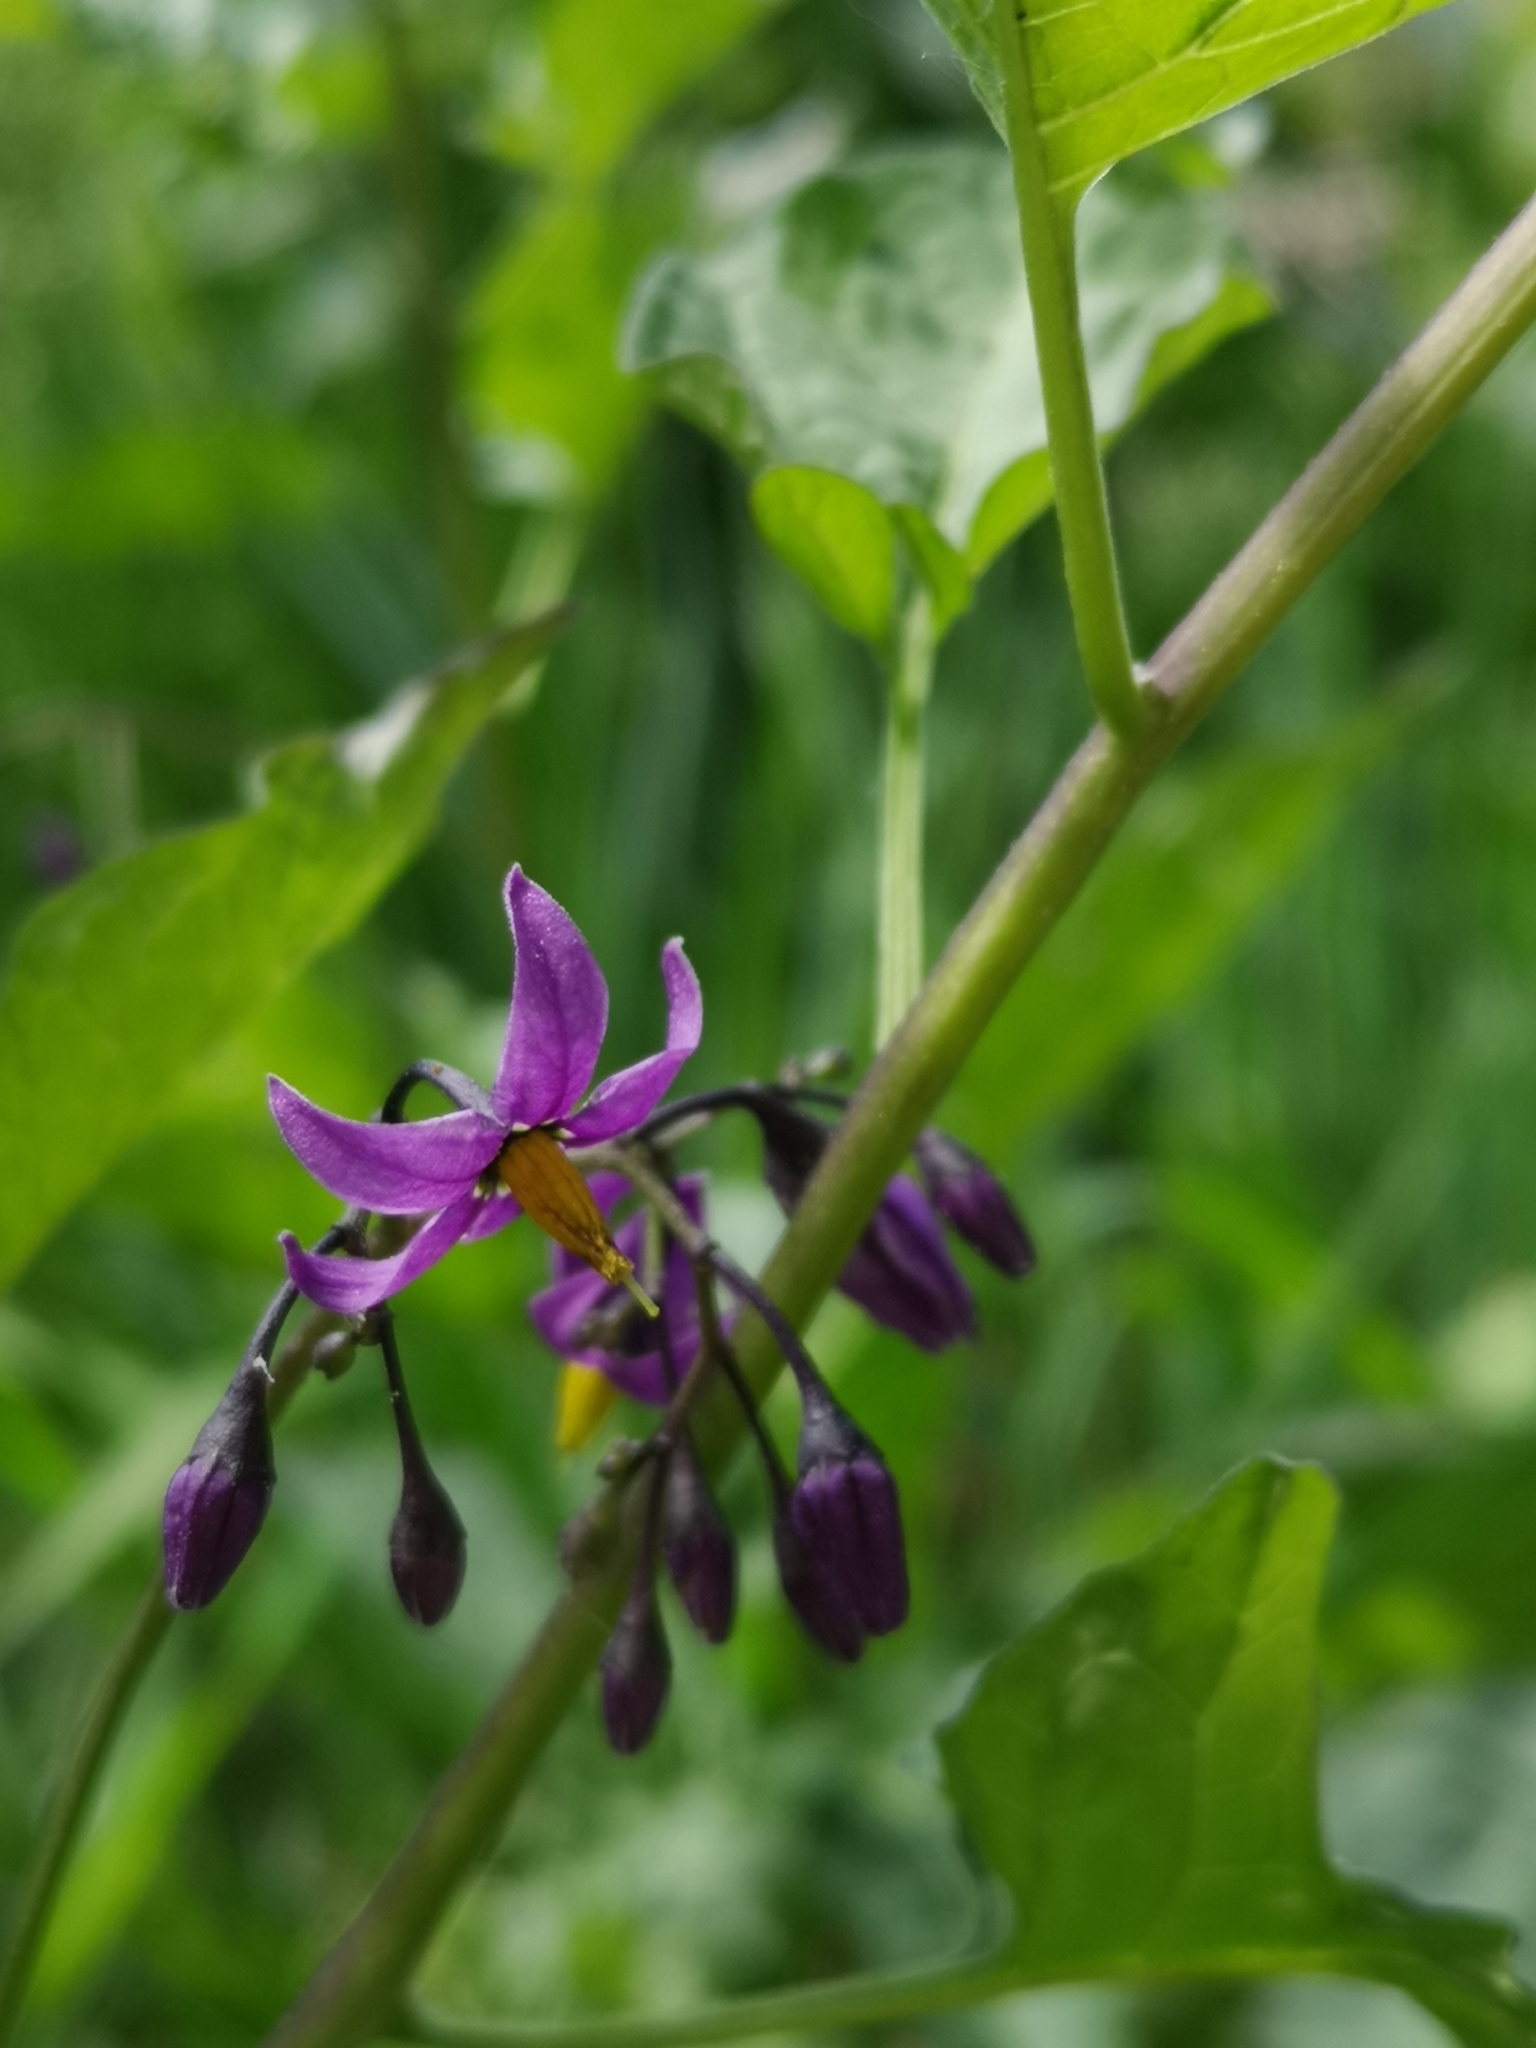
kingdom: Plantae
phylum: Tracheophyta
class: Magnoliopsida
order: Solanales
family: Solanaceae
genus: Solanum
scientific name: Solanum dulcamara
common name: Climbing nightshade
